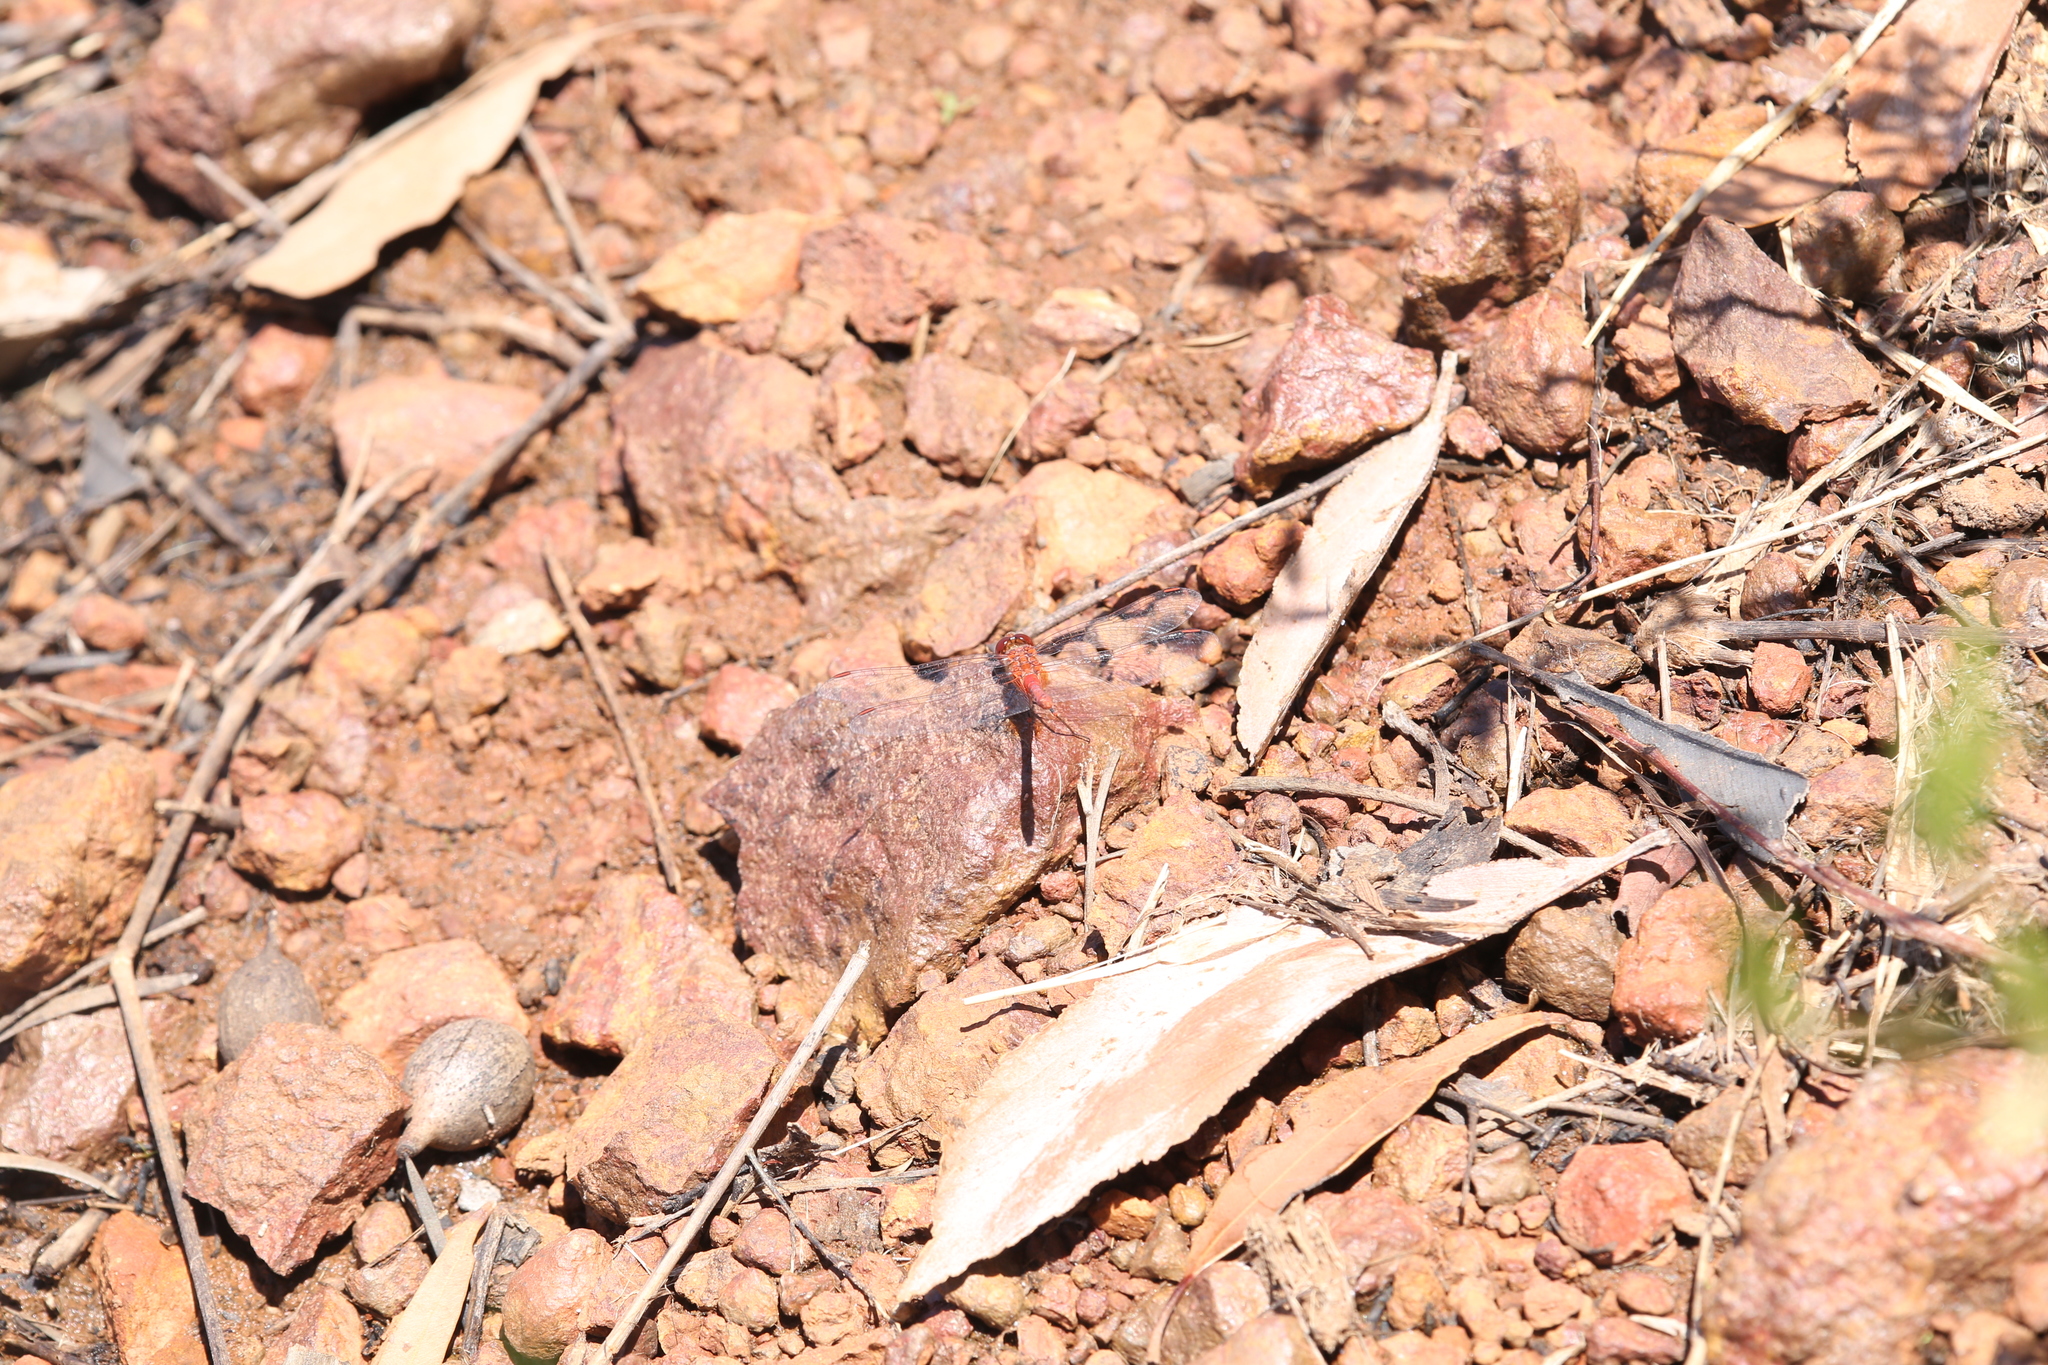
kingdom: Animalia
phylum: Arthropoda
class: Insecta
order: Odonata
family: Libellulidae
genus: Diplacodes
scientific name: Diplacodes bipunctata
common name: Red percher dragonfly
